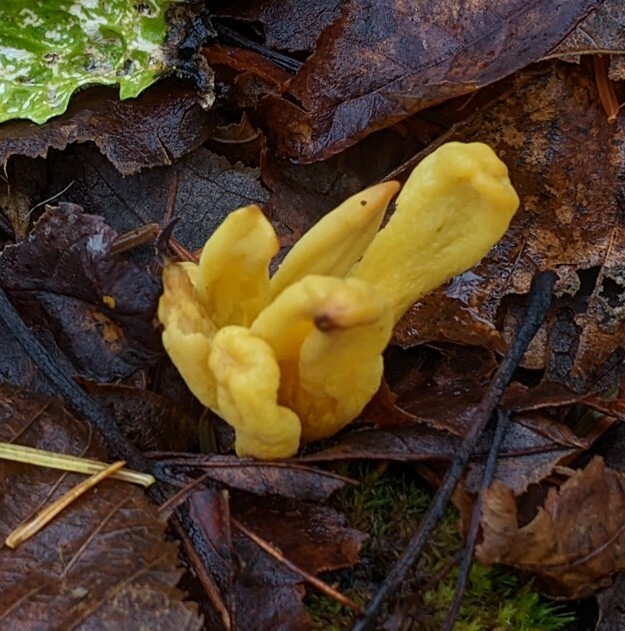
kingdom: Fungi
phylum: Ascomycota
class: Neolectomycetes
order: Neolectales
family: Neolectaceae
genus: Neolecta
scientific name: Neolecta irregularis
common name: Irregular earth tongue
